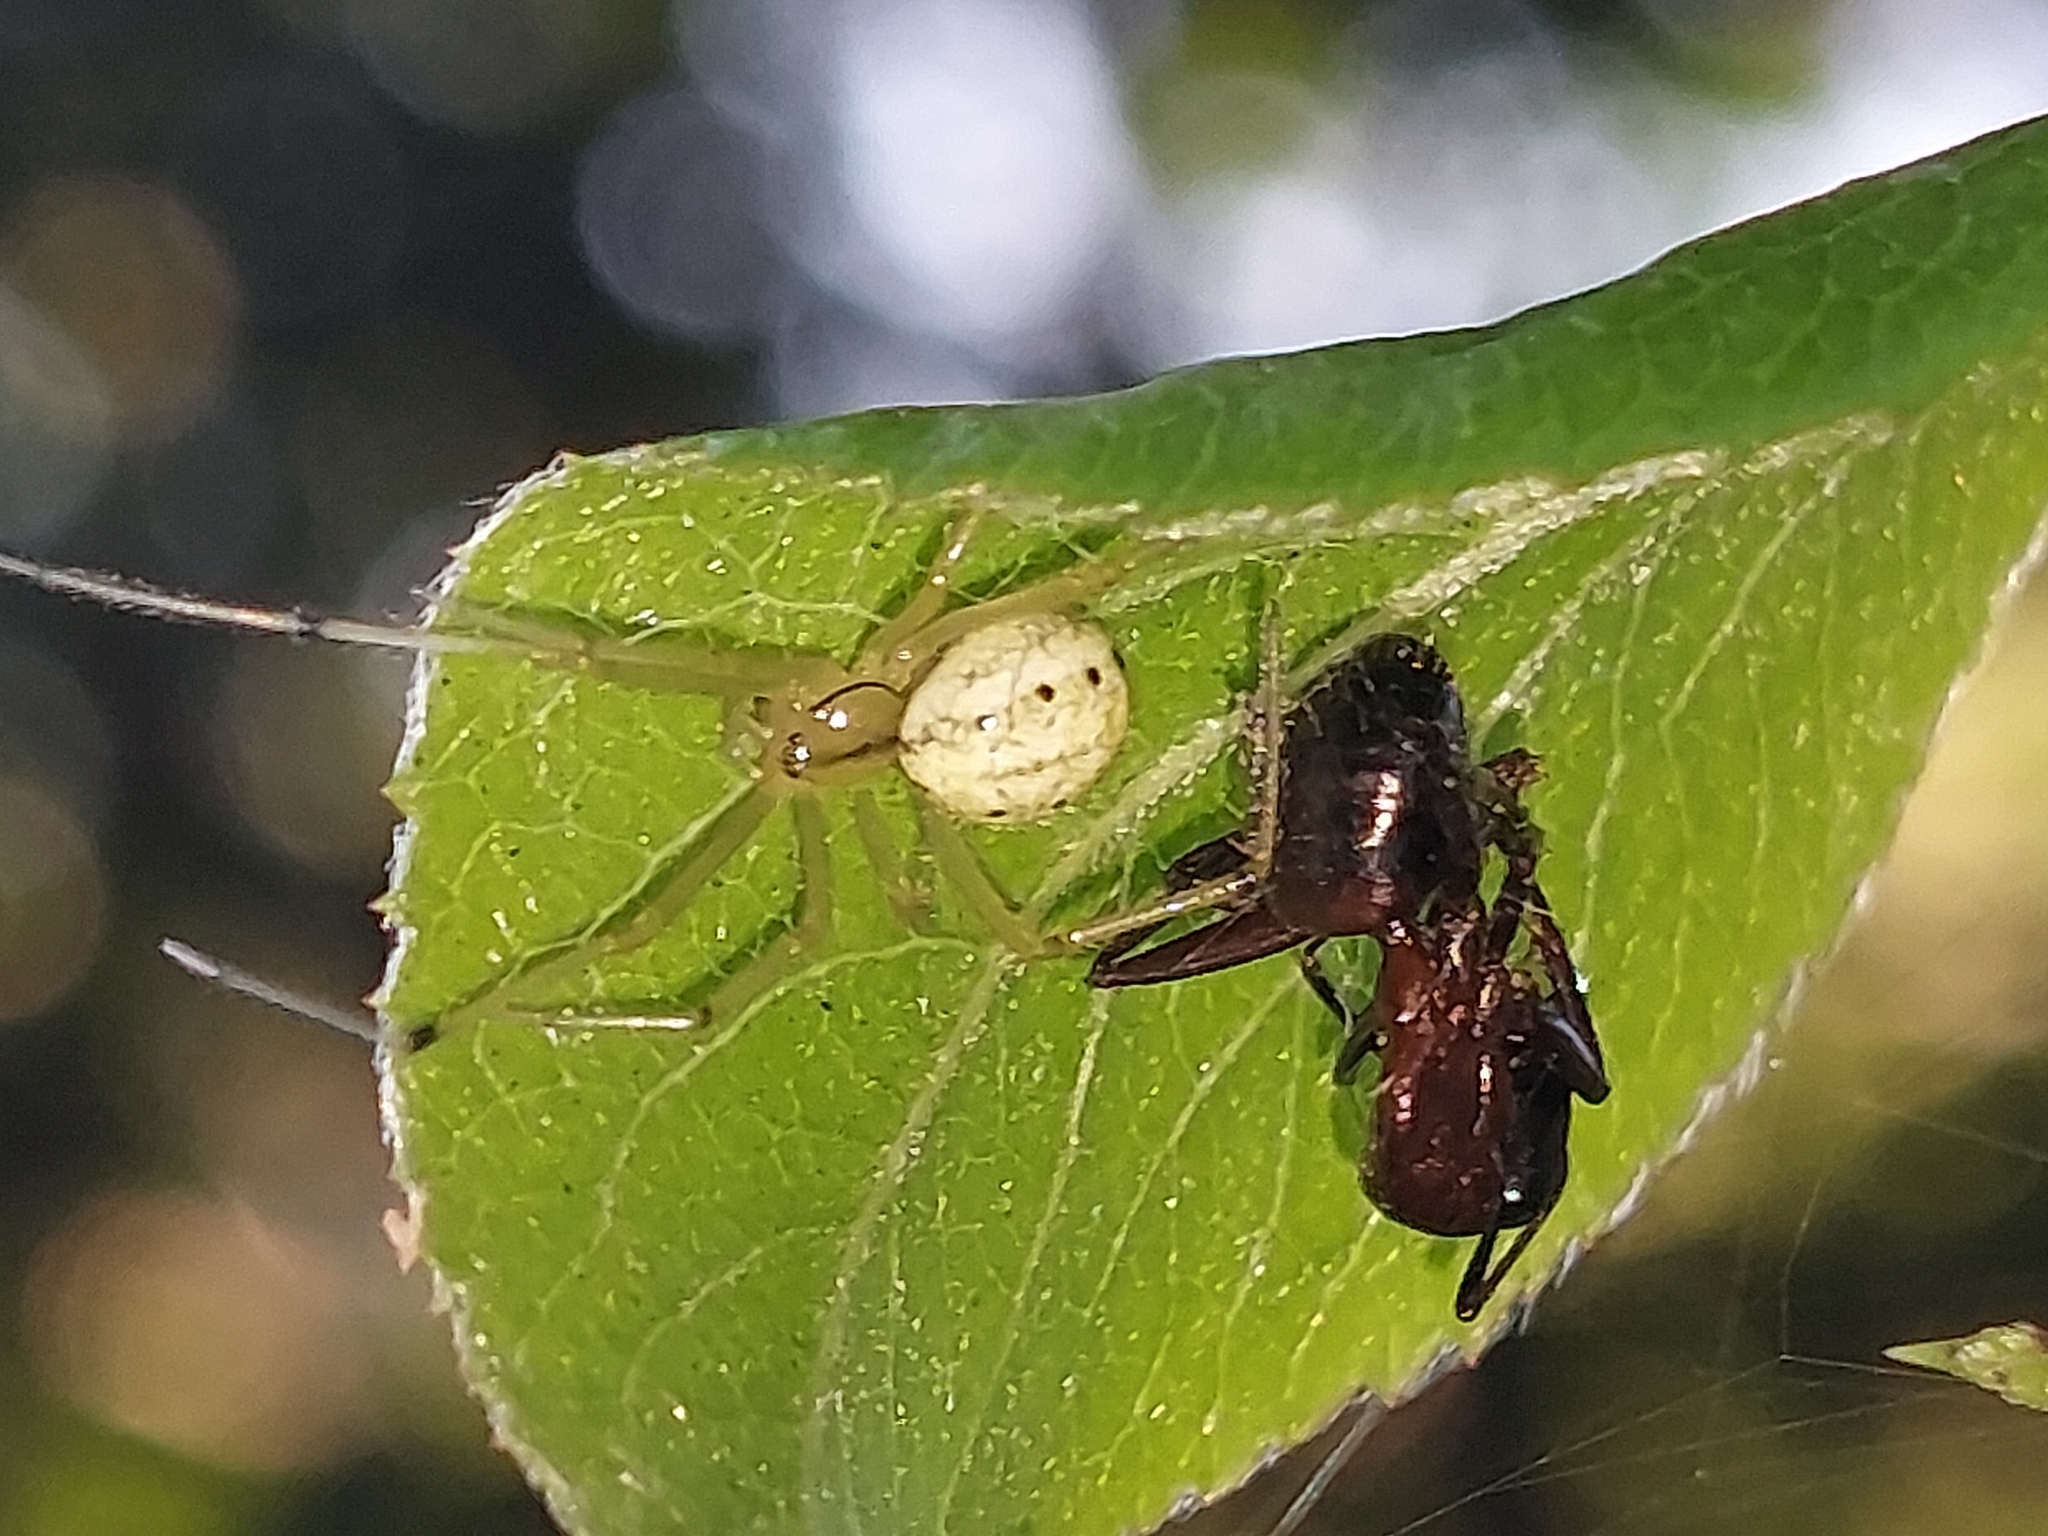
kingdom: Animalia
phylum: Arthropoda
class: Insecta
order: Hymenoptera
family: Formicidae
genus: Camponotus
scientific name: Camponotus ligniperdus
